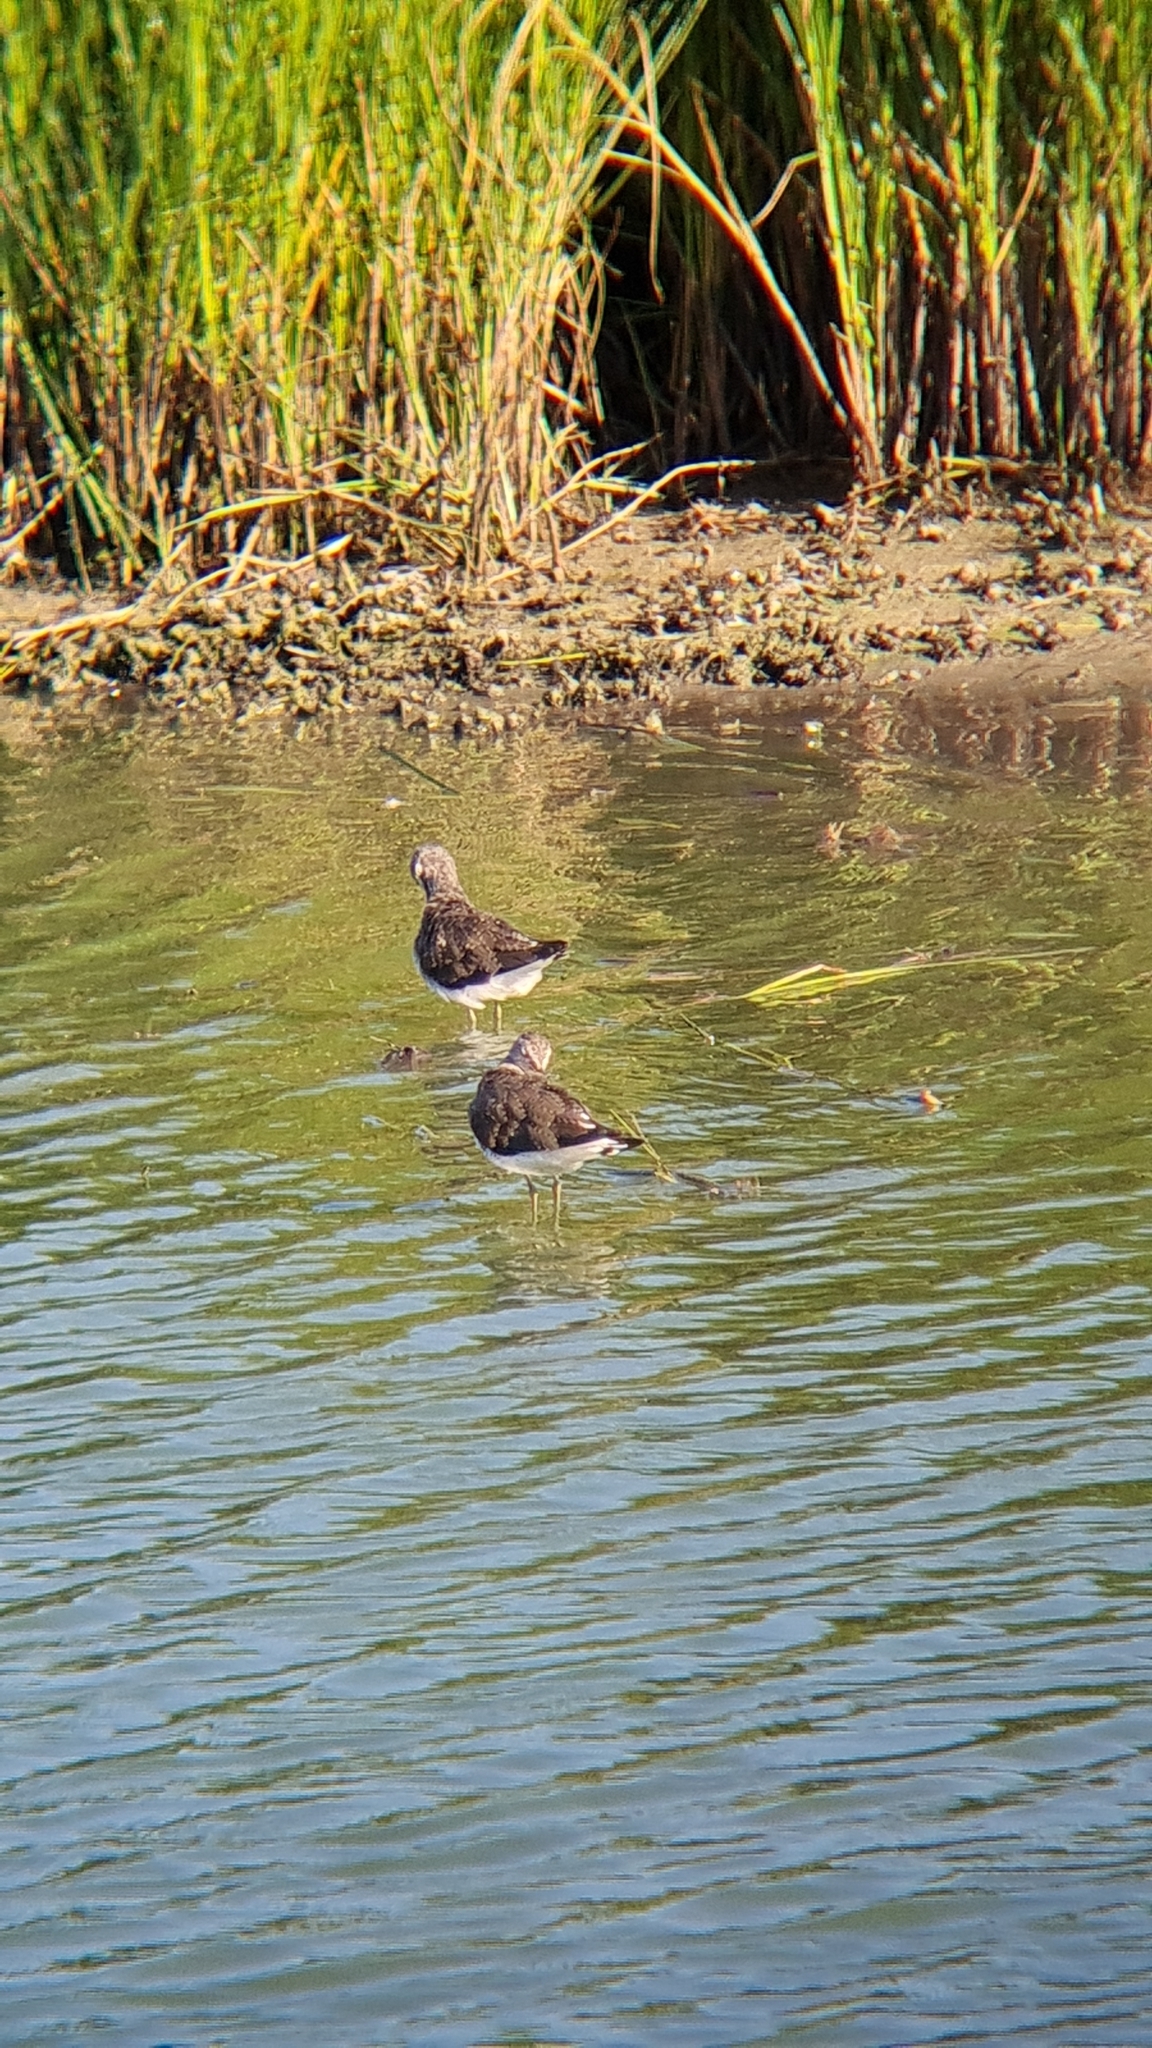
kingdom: Animalia
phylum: Chordata
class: Aves
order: Charadriiformes
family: Scolopacidae
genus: Tringa
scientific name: Tringa ochropus
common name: Green sandpiper
